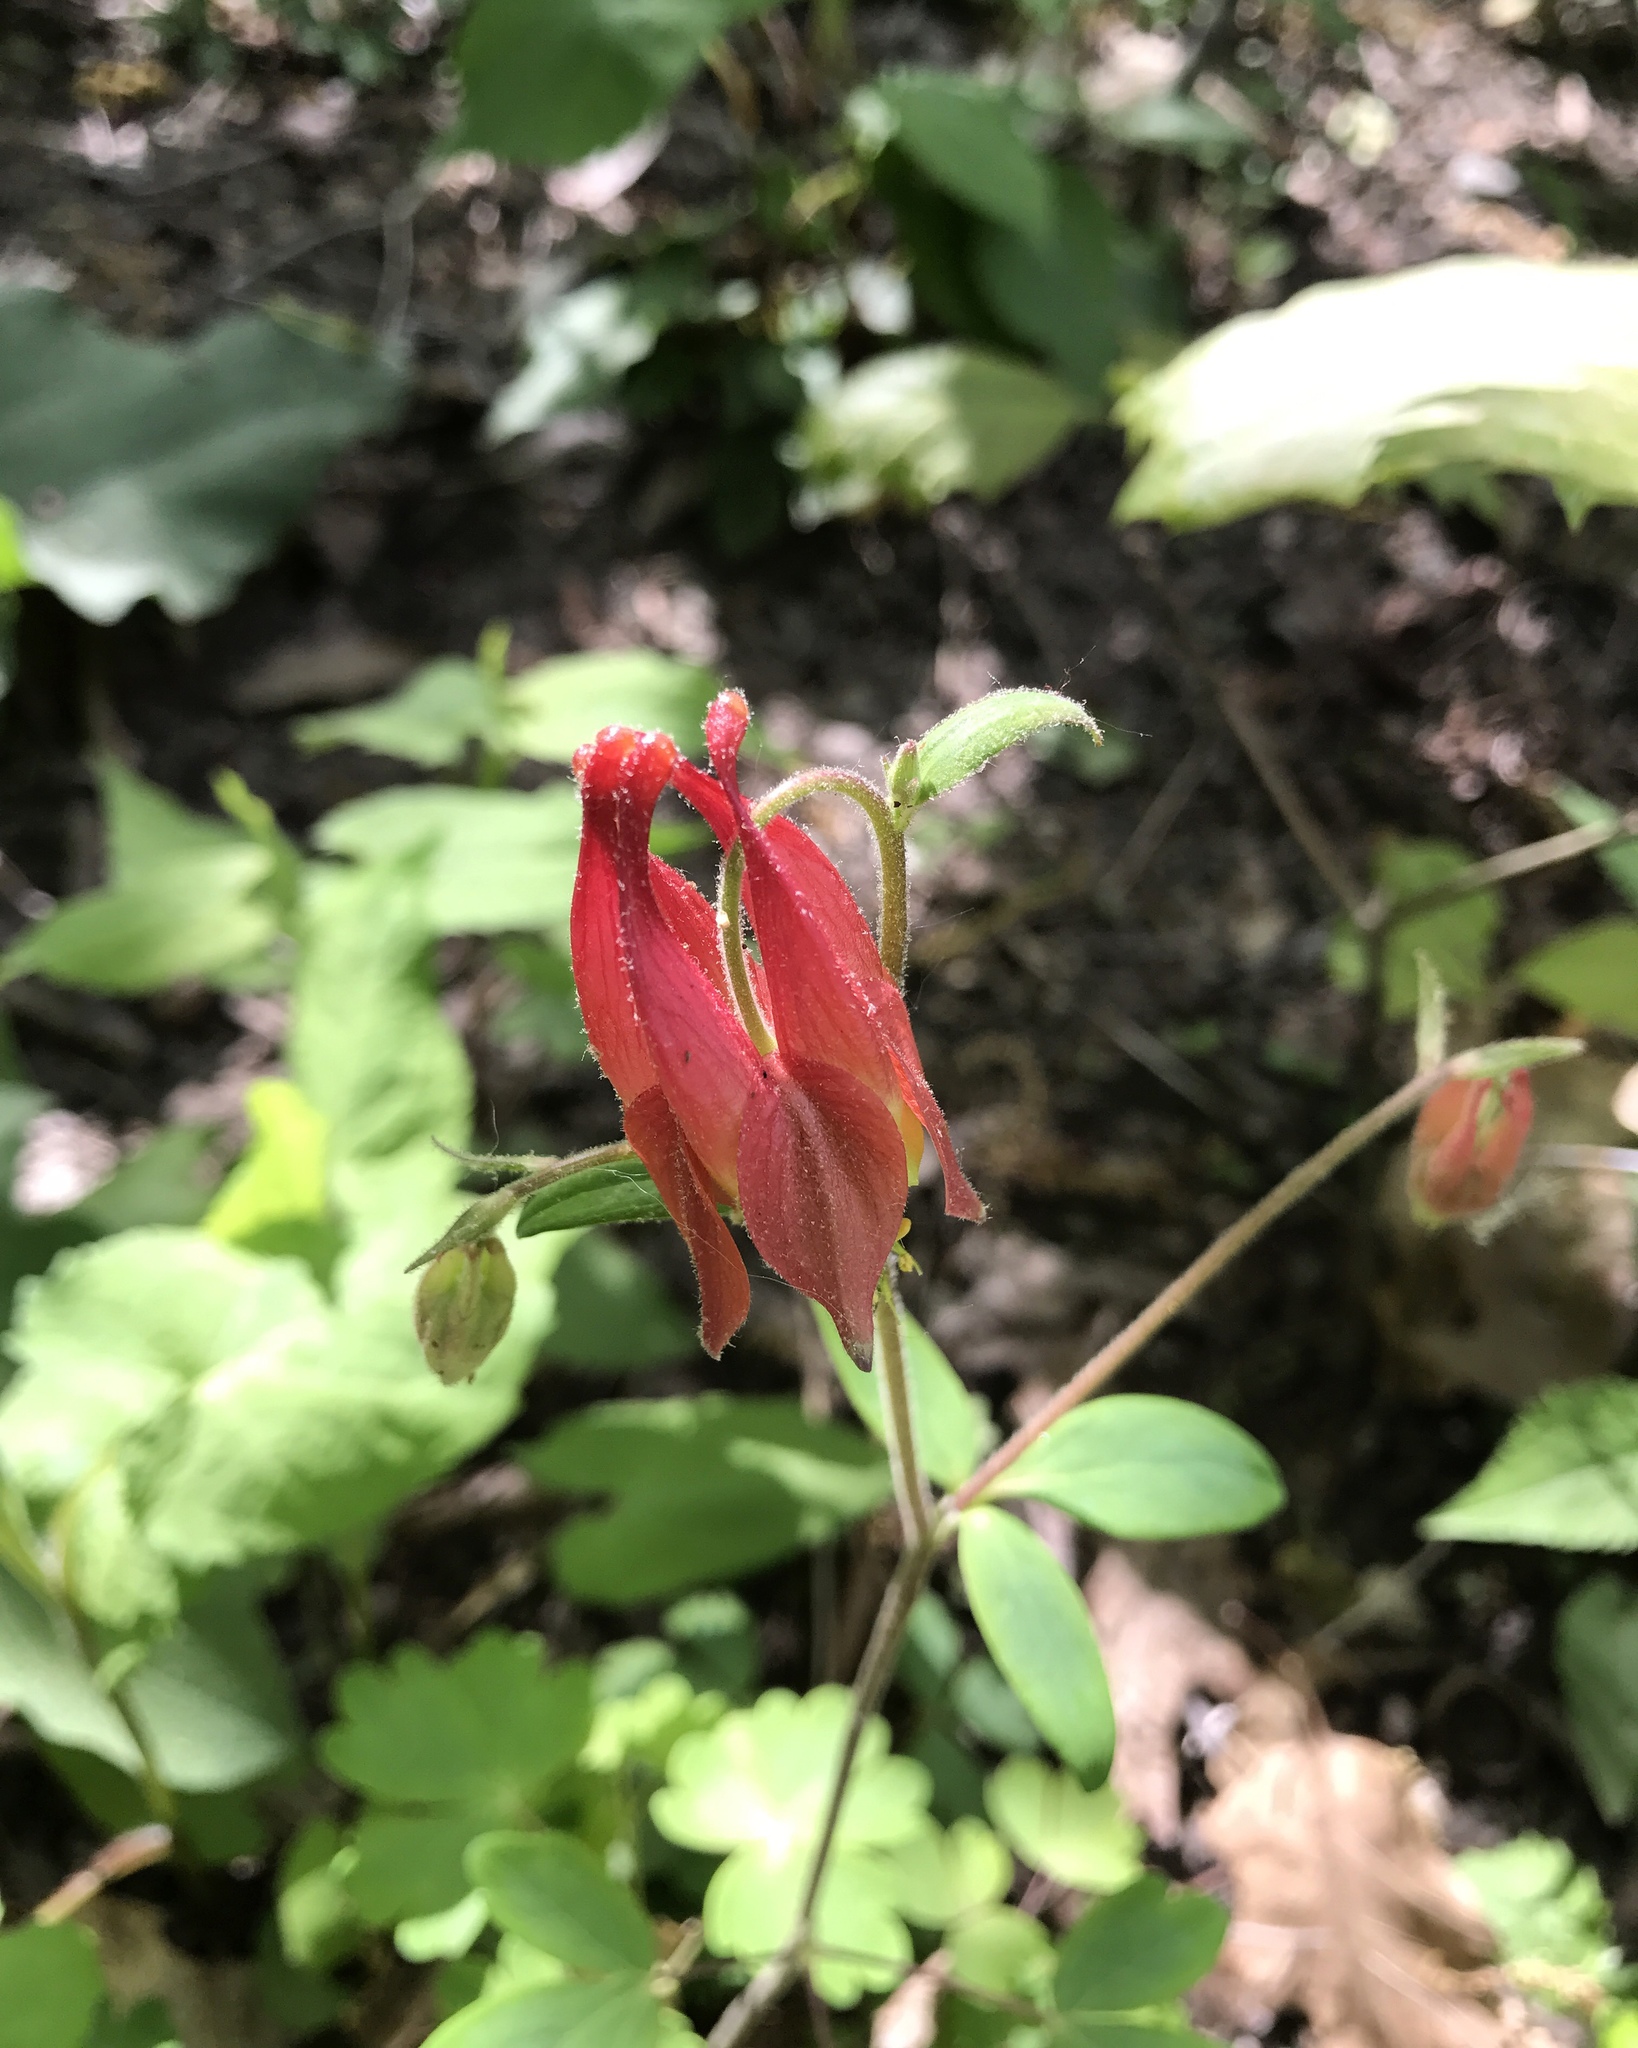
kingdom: Plantae
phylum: Tracheophyta
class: Magnoliopsida
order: Ranunculales
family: Ranunculaceae
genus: Aquilegia
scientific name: Aquilegia canadensis
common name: American columbine
